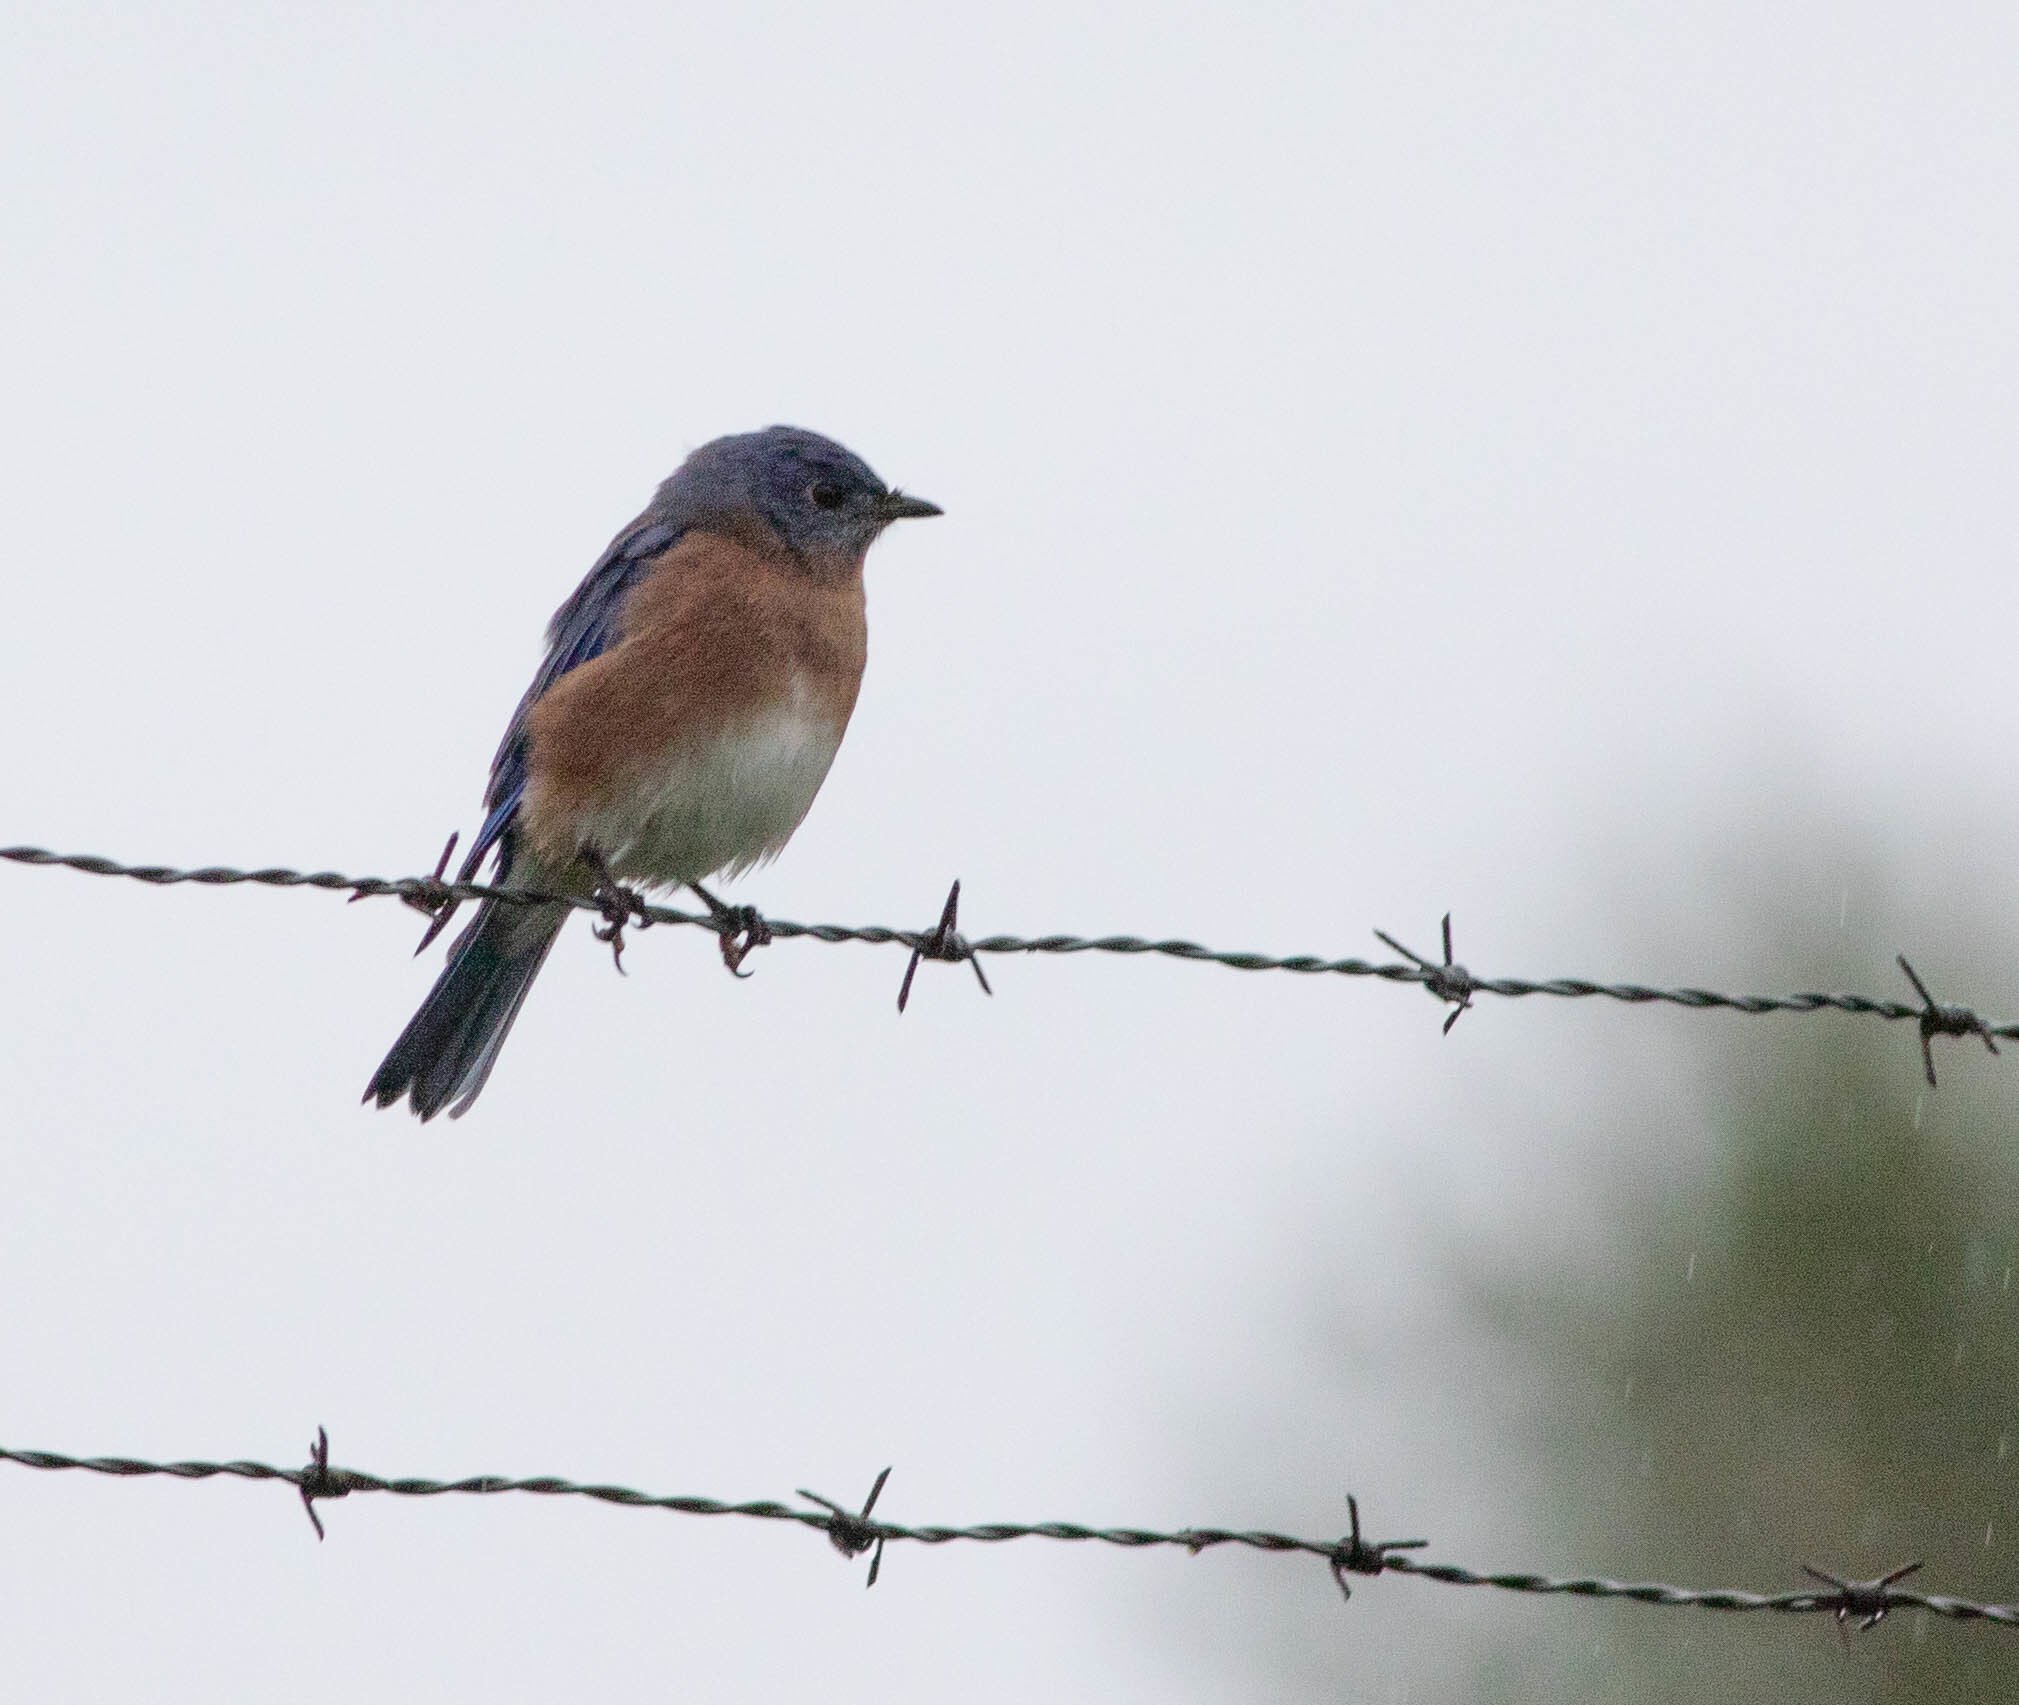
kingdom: Animalia
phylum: Chordata
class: Aves
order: Passeriformes
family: Turdidae
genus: Sialia
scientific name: Sialia sialis
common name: Eastern bluebird
